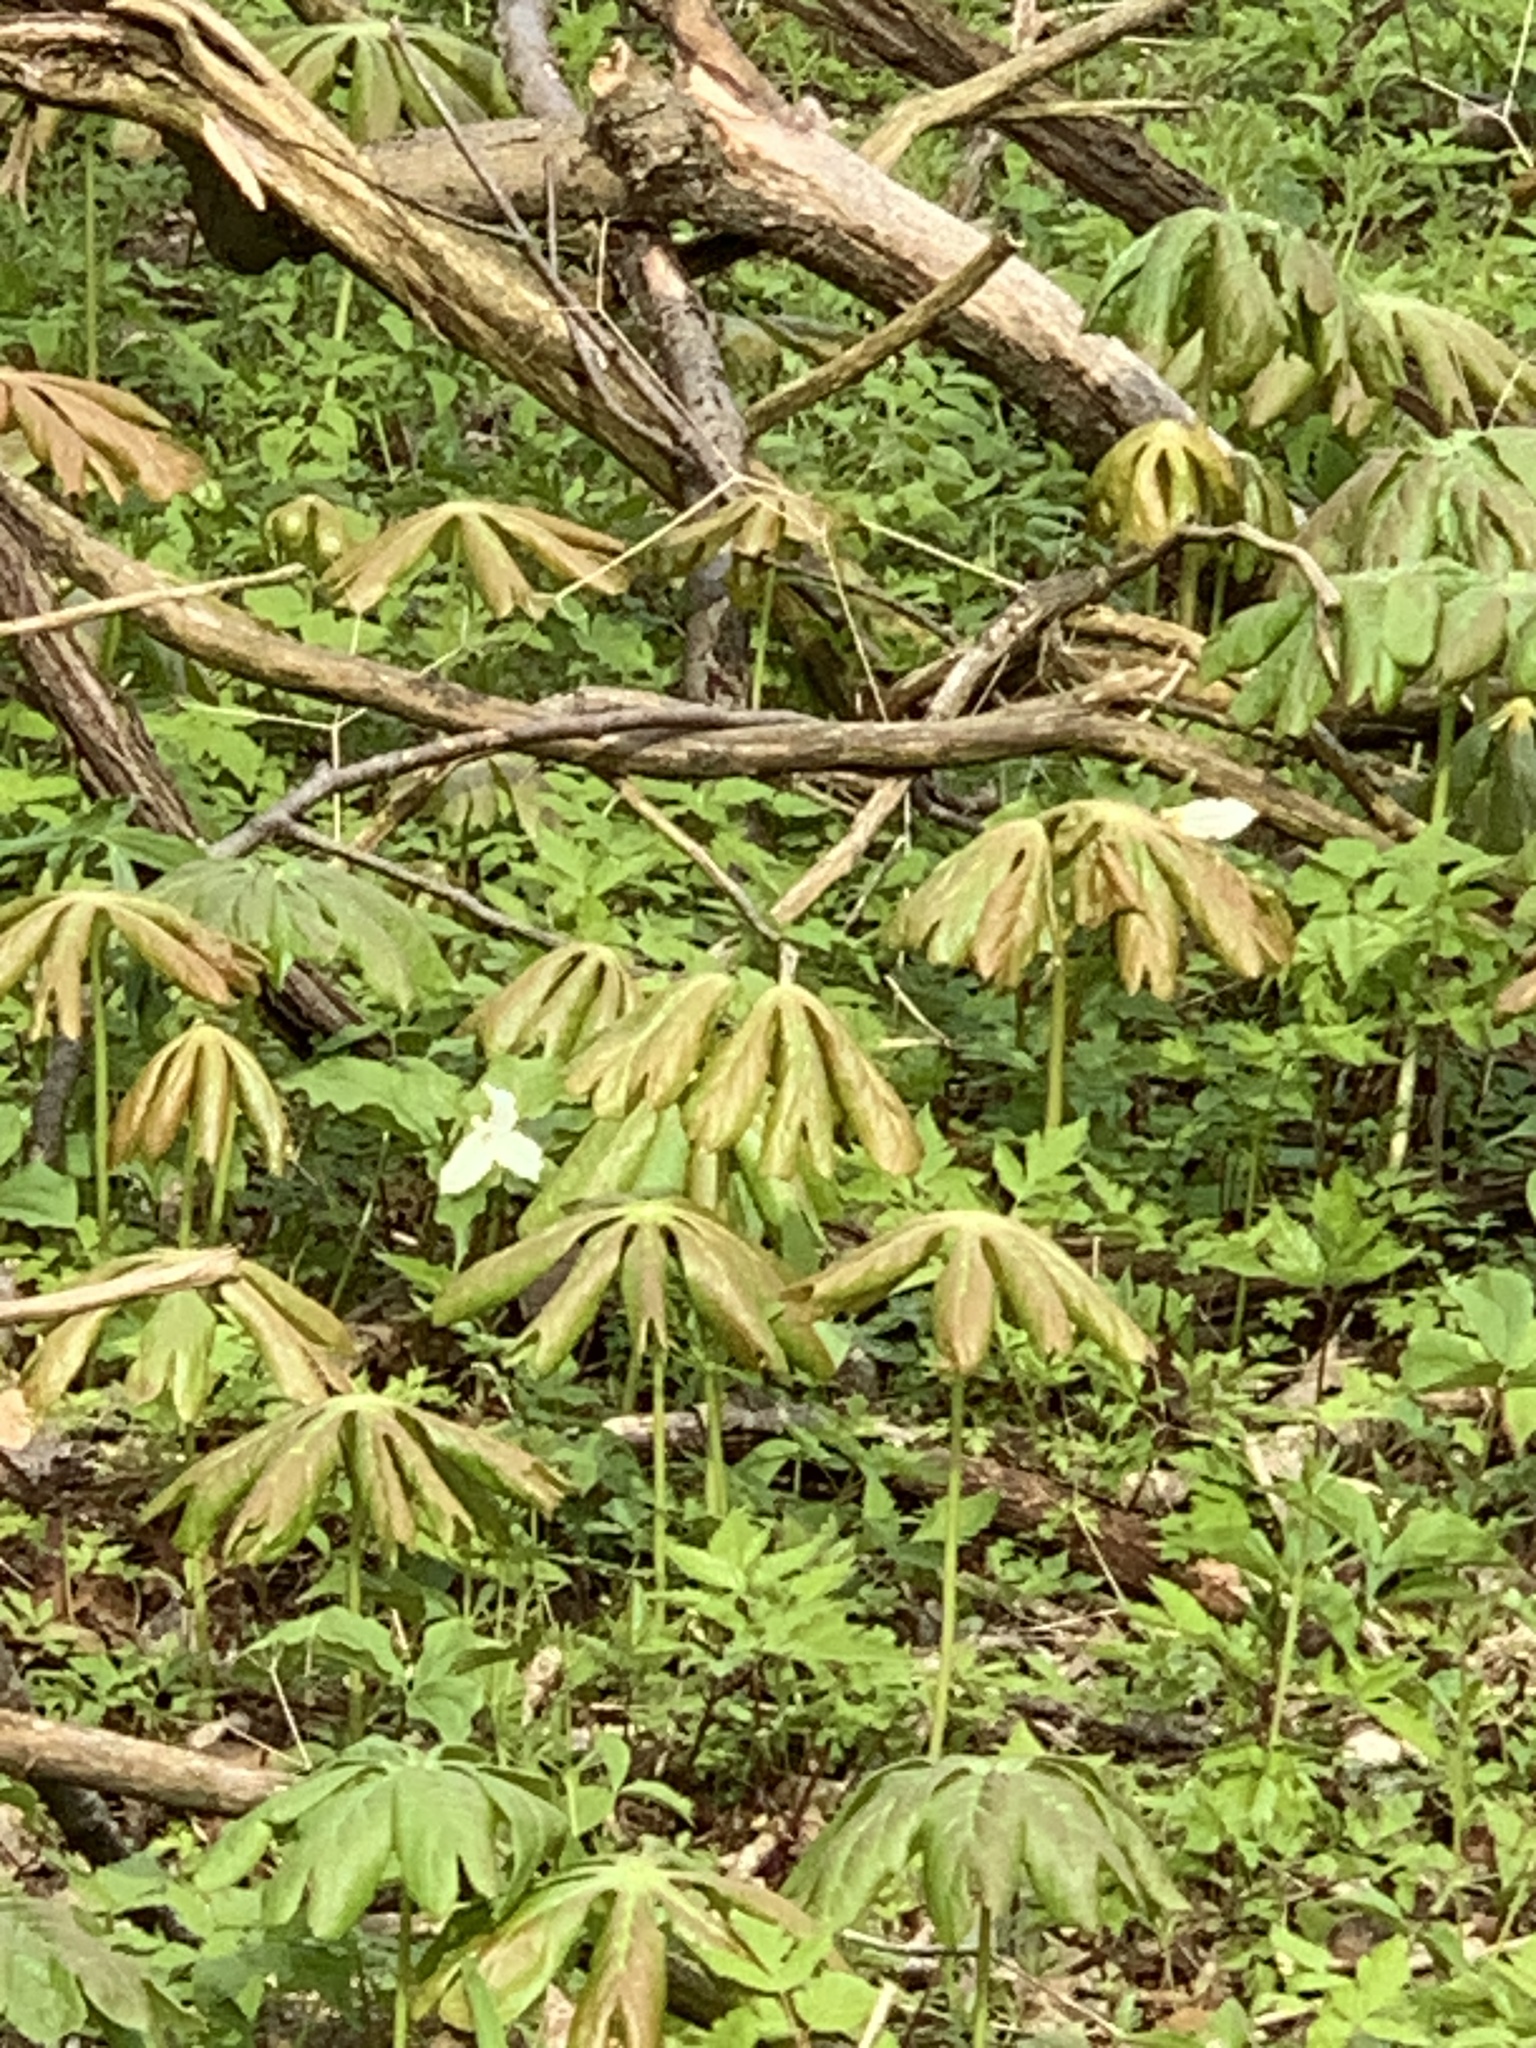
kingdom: Plantae
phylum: Tracheophyta
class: Magnoliopsida
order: Ranunculales
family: Berberidaceae
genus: Podophyllum
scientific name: Podophyllum peltatum
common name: Wild mandrake
